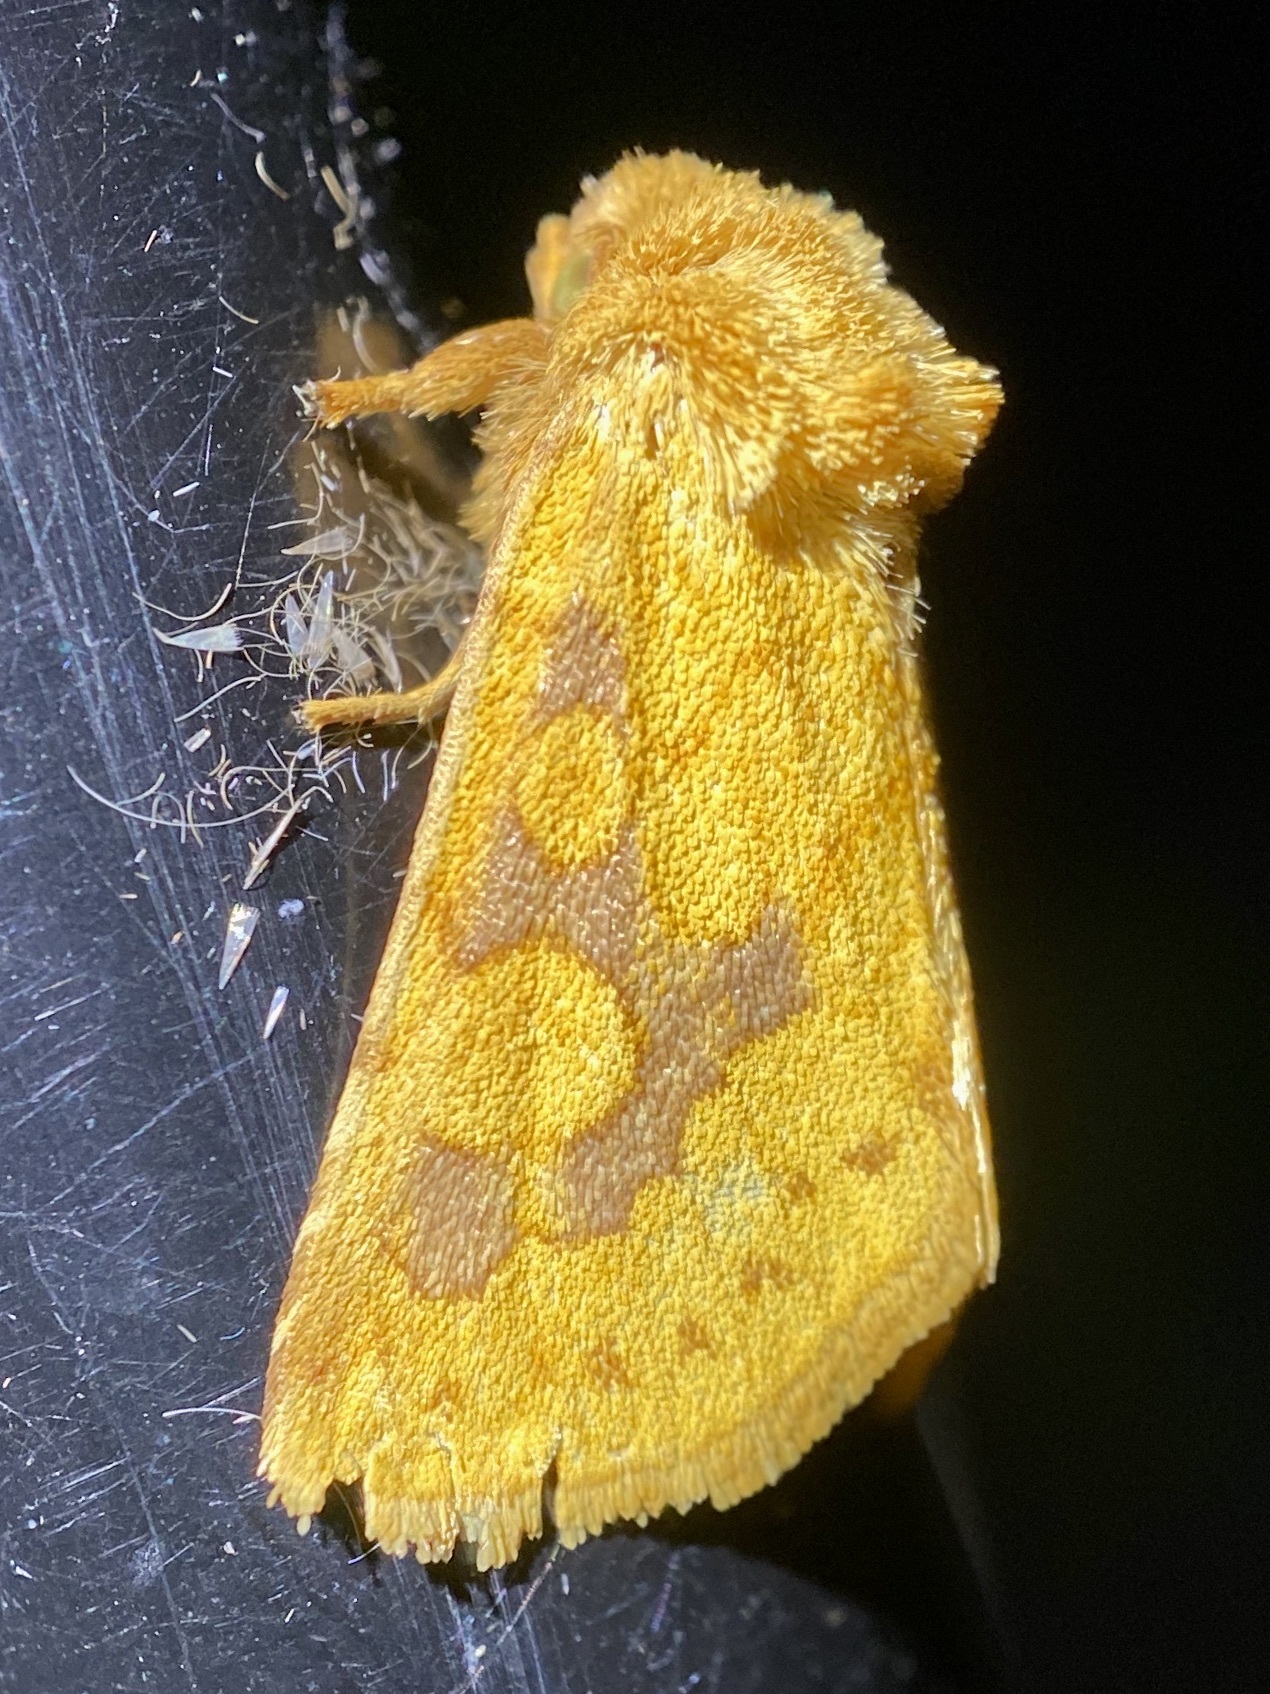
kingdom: Animalia
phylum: Arthropoda
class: Insecta
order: Lepidoptera
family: Noctuidae
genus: Nocloa
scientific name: Nocloa cordova
